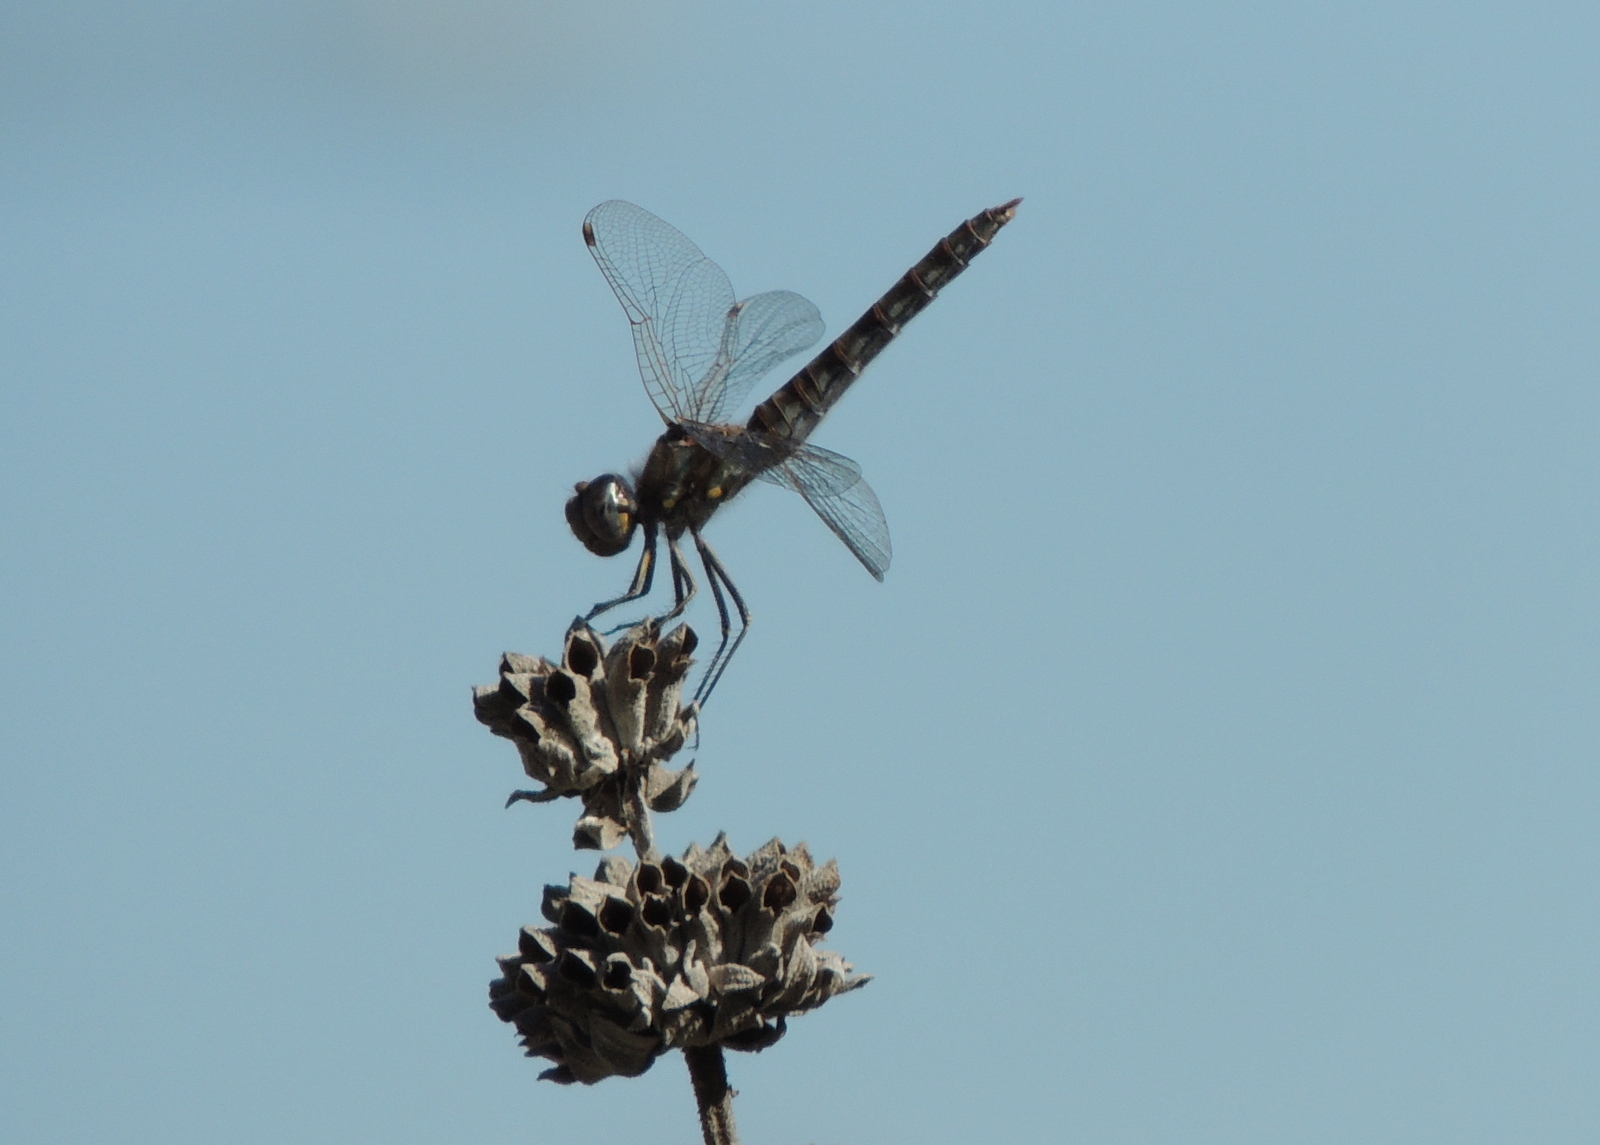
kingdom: Animalia
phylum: Arthropoda
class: Insecta
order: Odonata
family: Libellulidae
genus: Sympetrum
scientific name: Sympetrum corruptum
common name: Variegated meadowhawk
